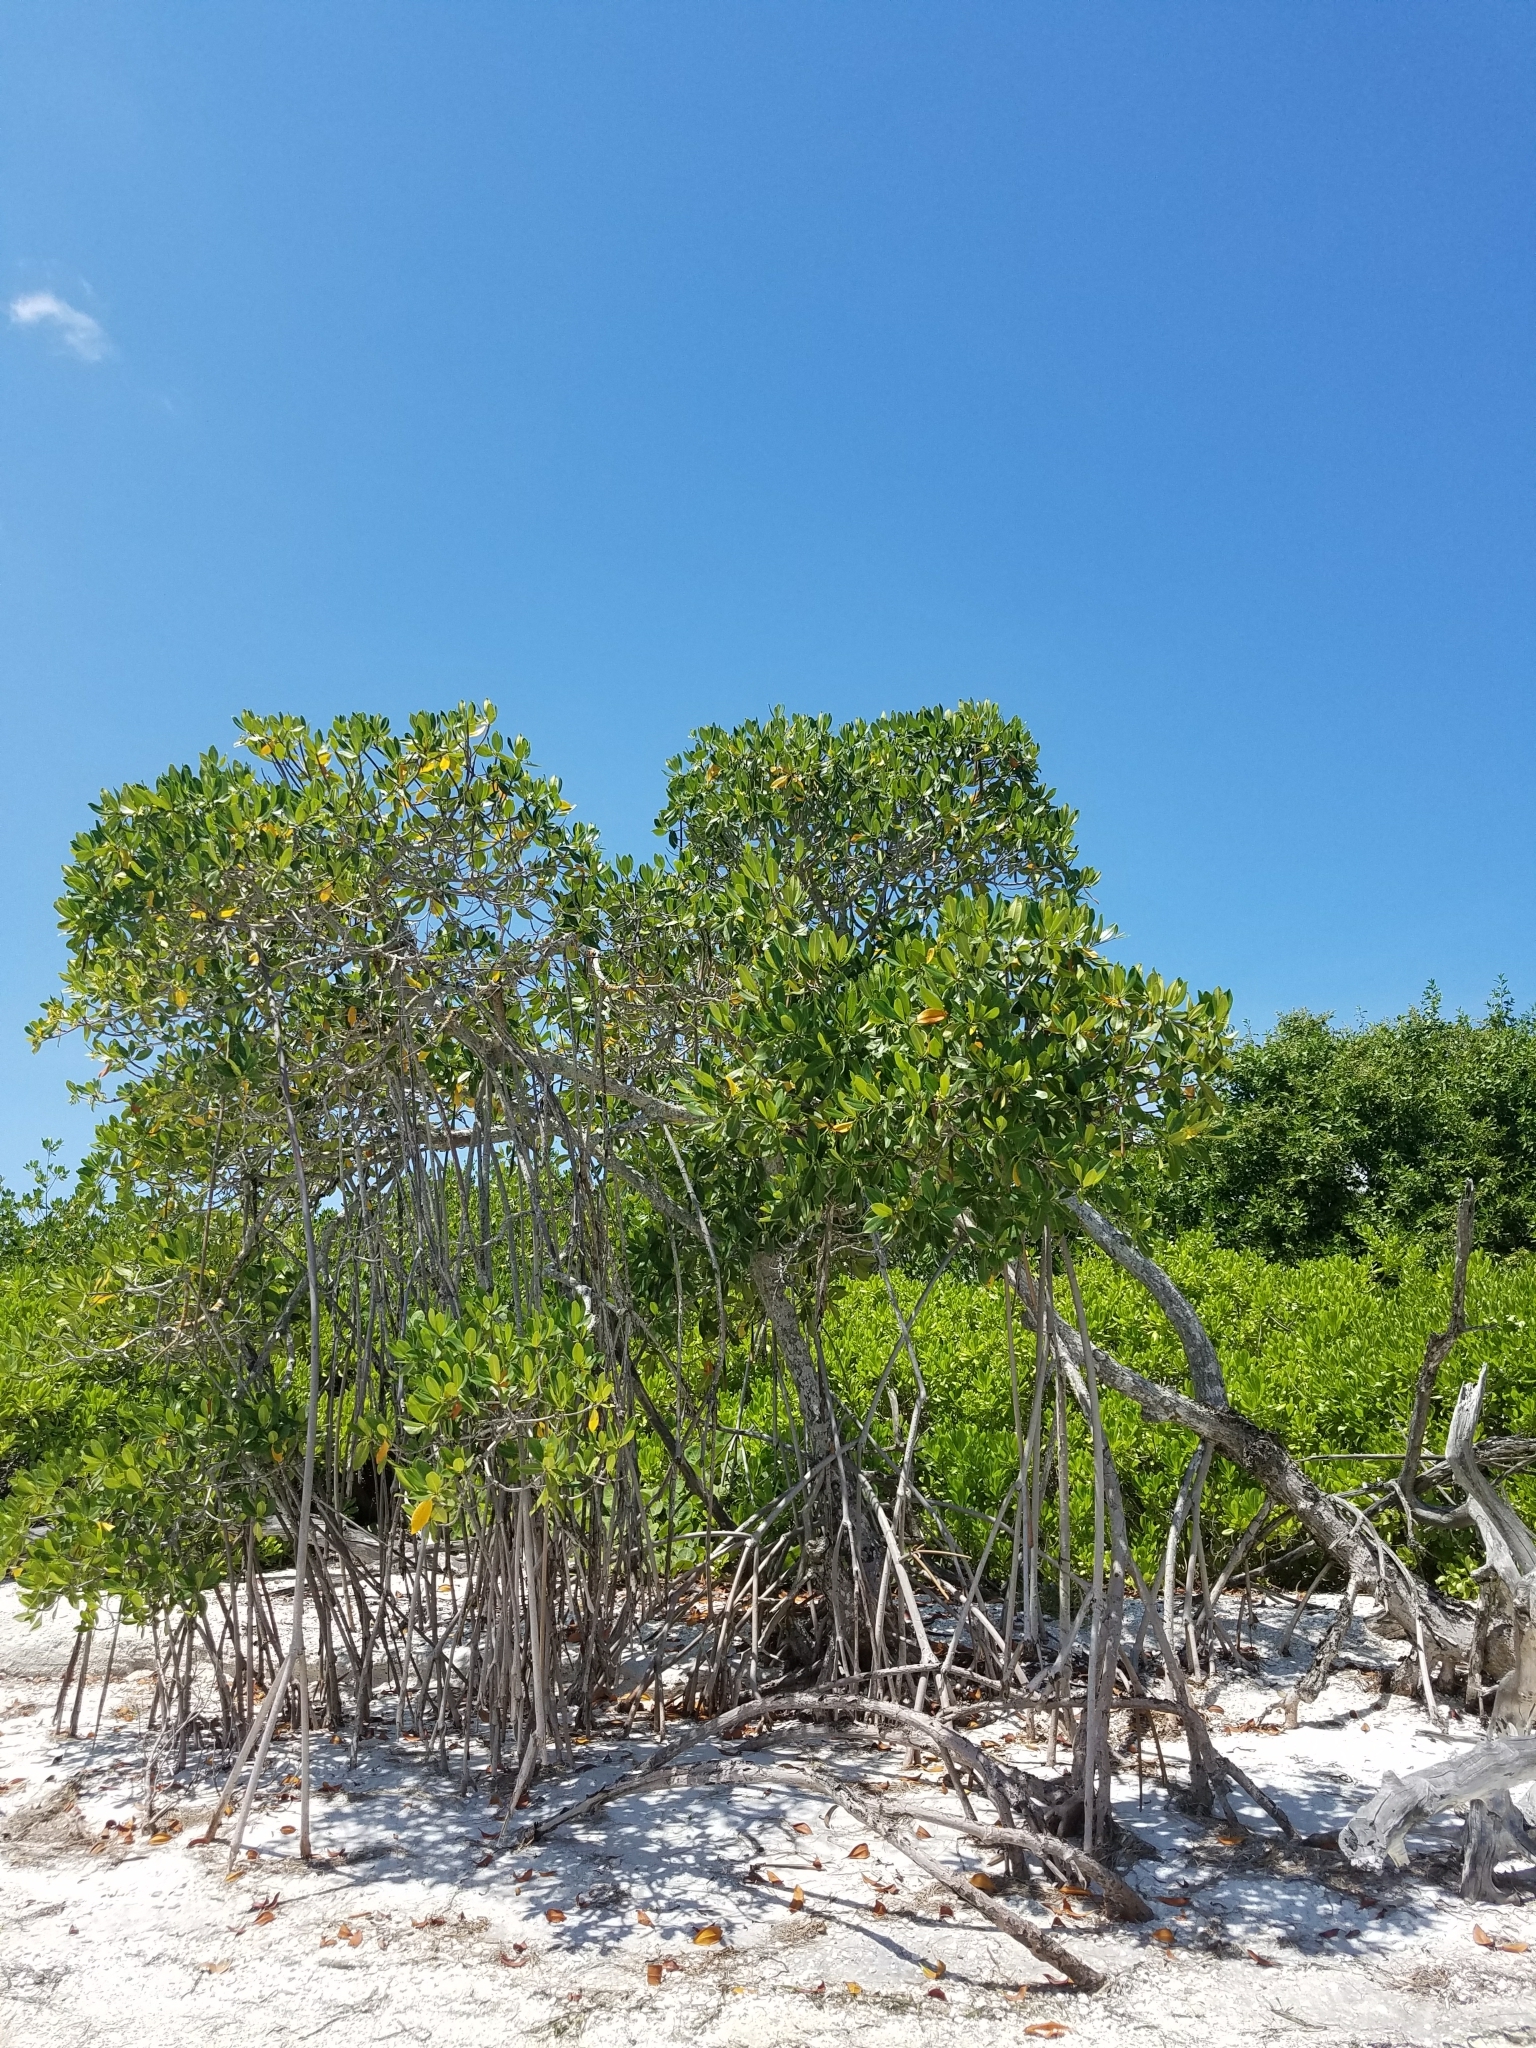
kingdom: Plantae
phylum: Tracheophyta
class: Magnoliopsida
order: Malpighiales
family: Rhizophoraceae
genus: Rhizophora
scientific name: Rhizophora mangle
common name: Red mangrove
